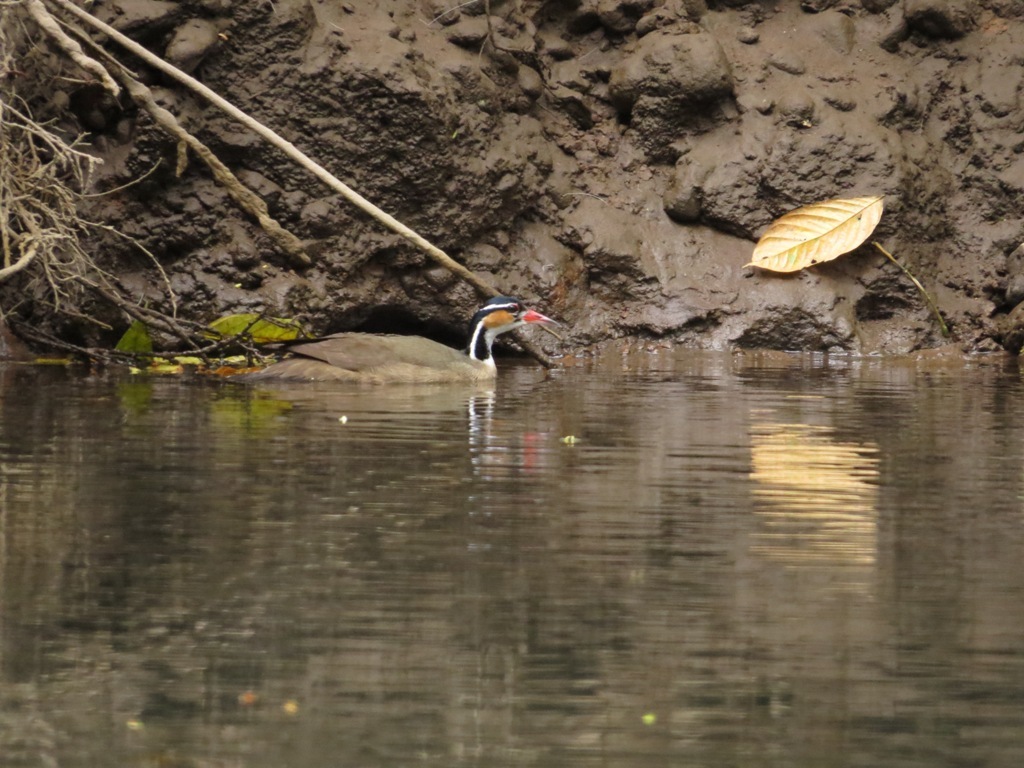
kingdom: Animalia
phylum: Chordata
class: Aves
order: Gruiformes
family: Heliornithidae
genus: Heliornis
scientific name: Heliornis fulica
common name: Sungrebe
